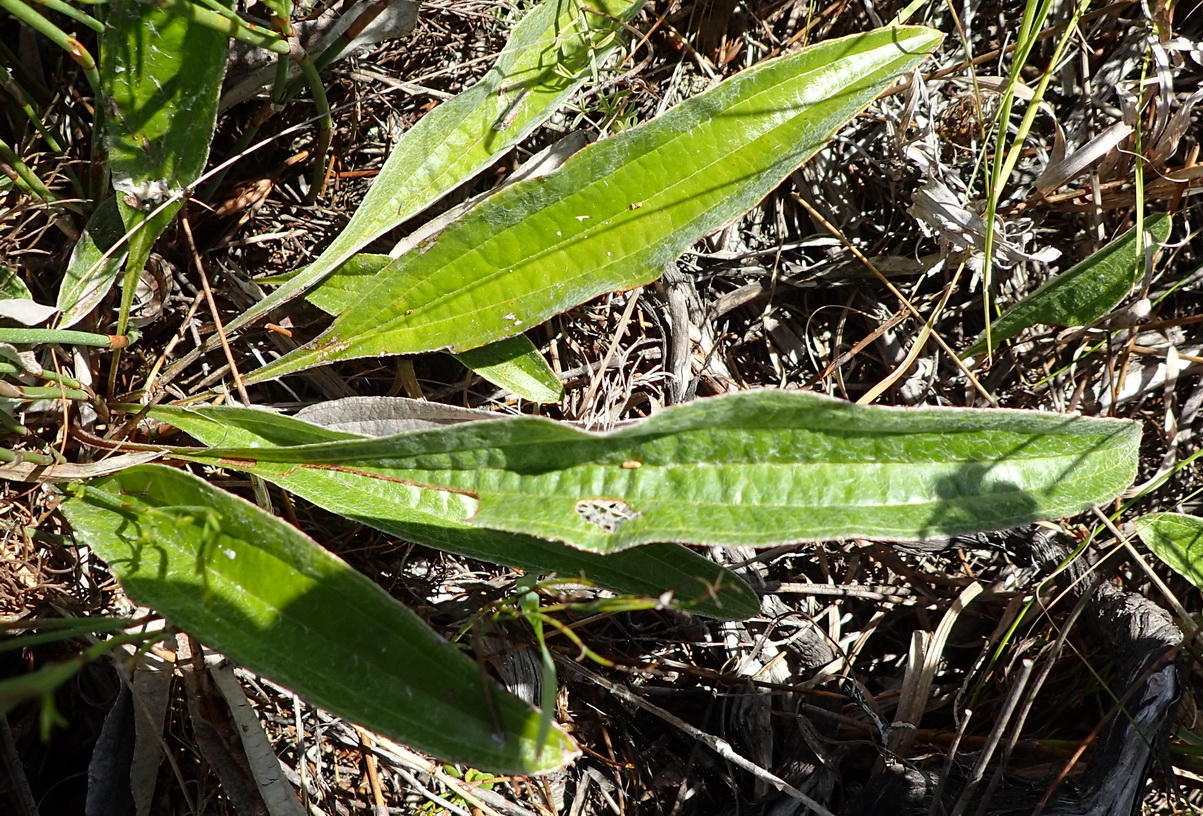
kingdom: Plantae
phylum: Tracheophyta
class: Magnoliopsida
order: Asterales
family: Asteraceae
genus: Helichrysum
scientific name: Helichrysum nudifolium
